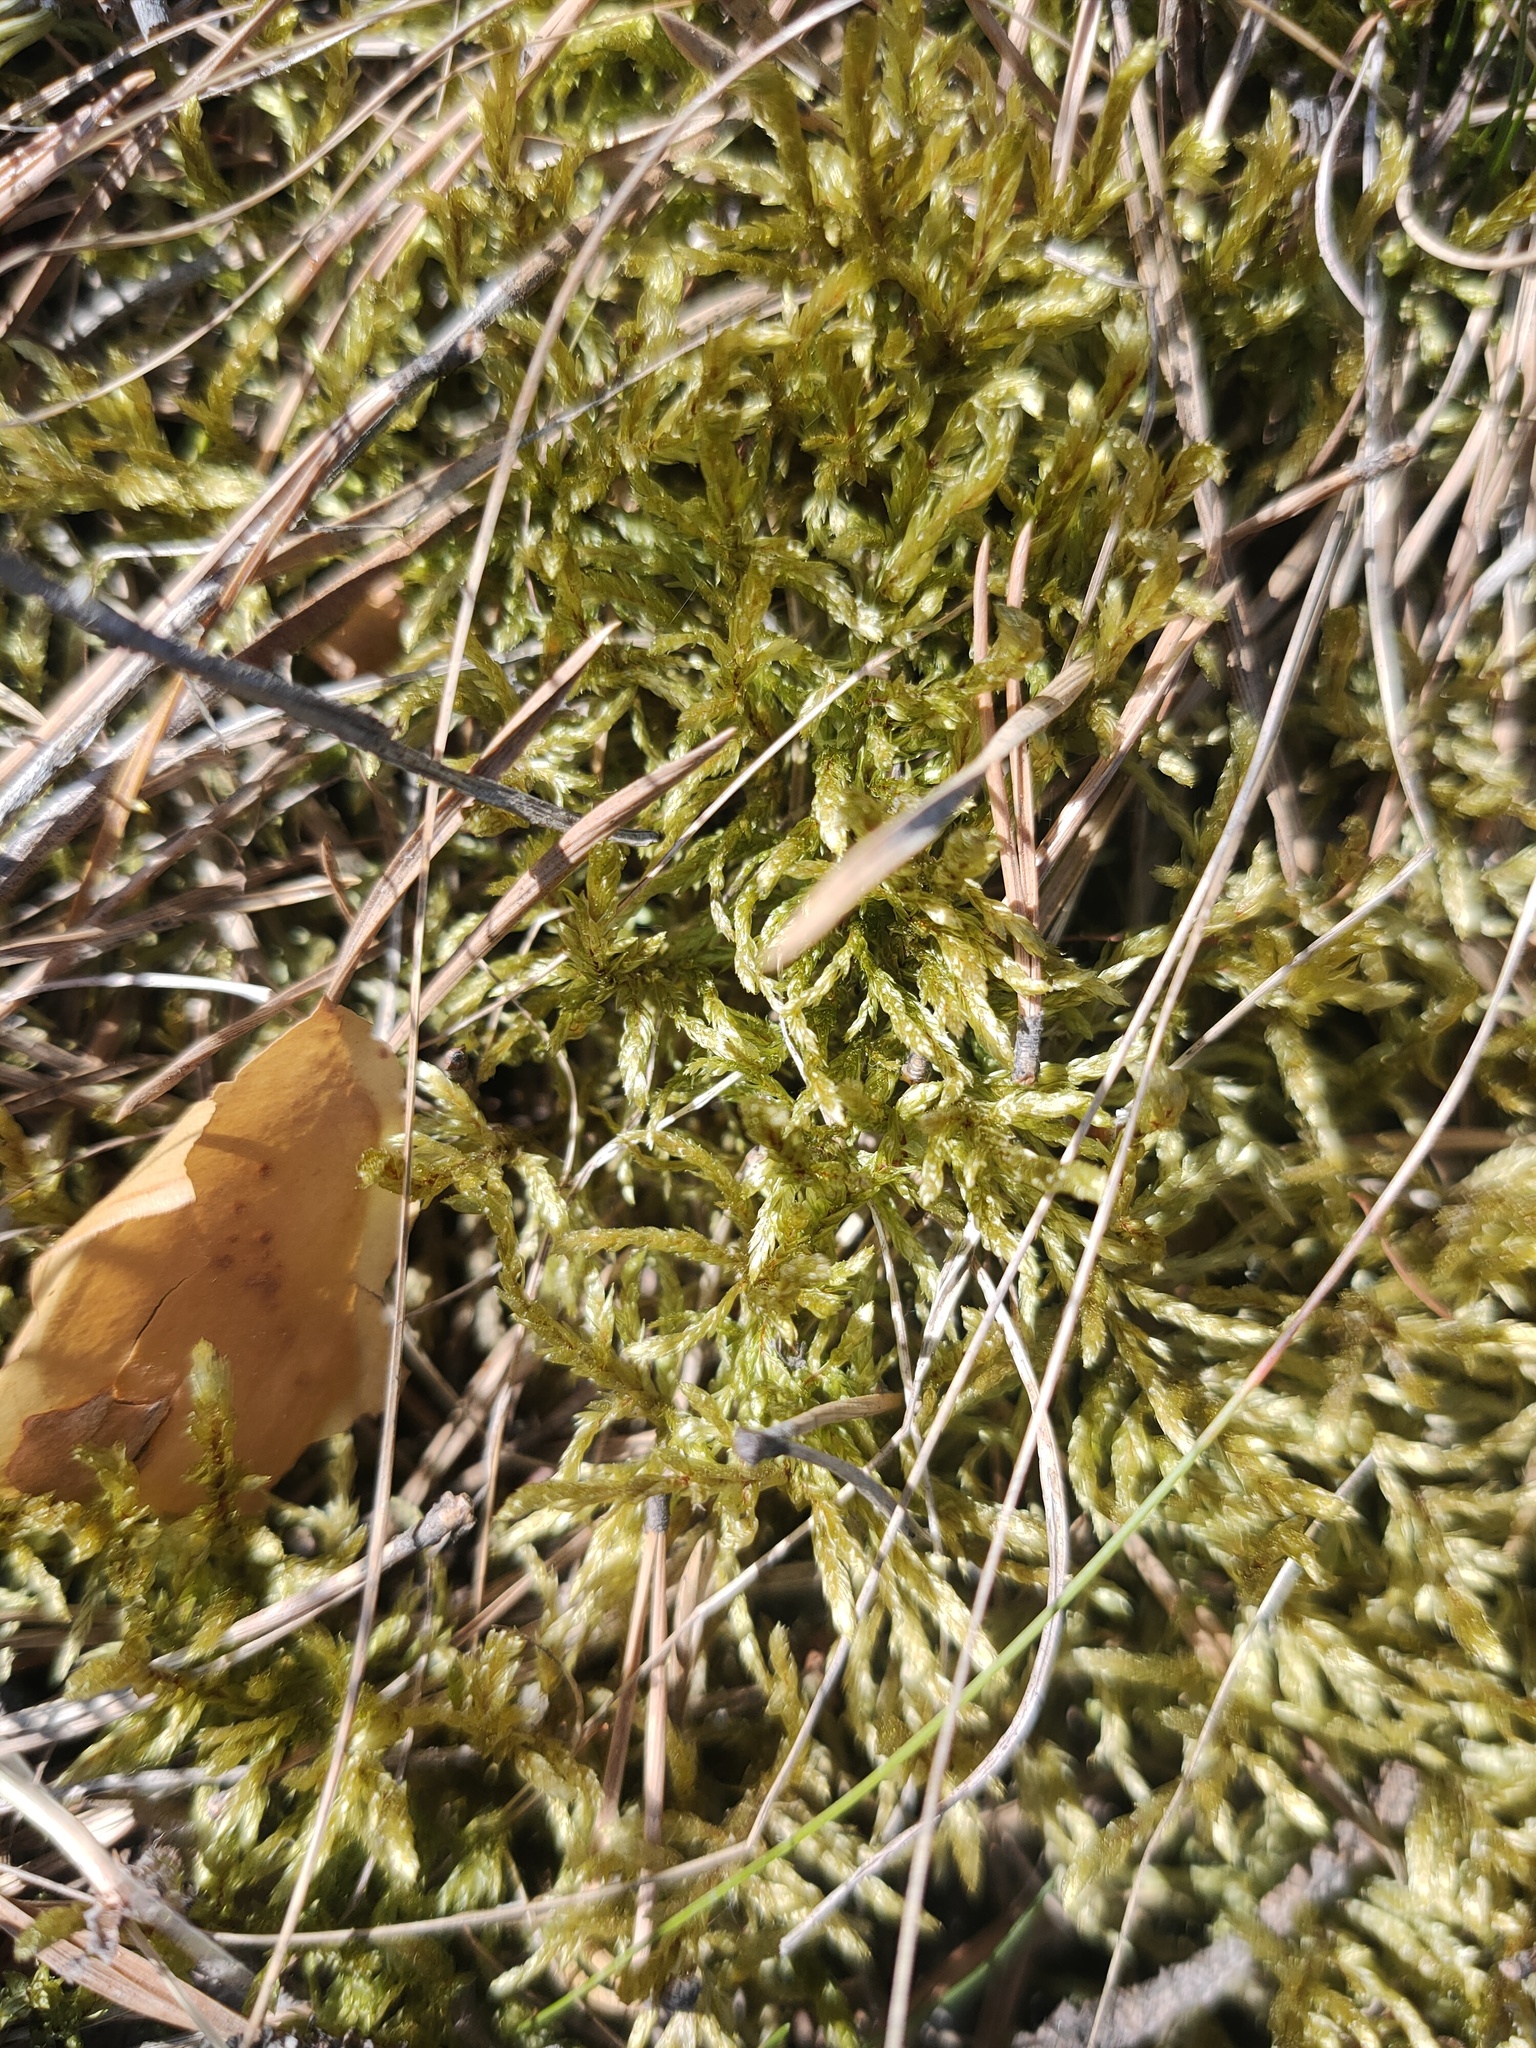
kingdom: Plantae
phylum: Bryophyta
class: Bryopsida
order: Hypnales
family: Hylocomiaceae
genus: Pleurozium
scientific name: Pleurozium schreberi
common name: Red-stemmed feather moss
